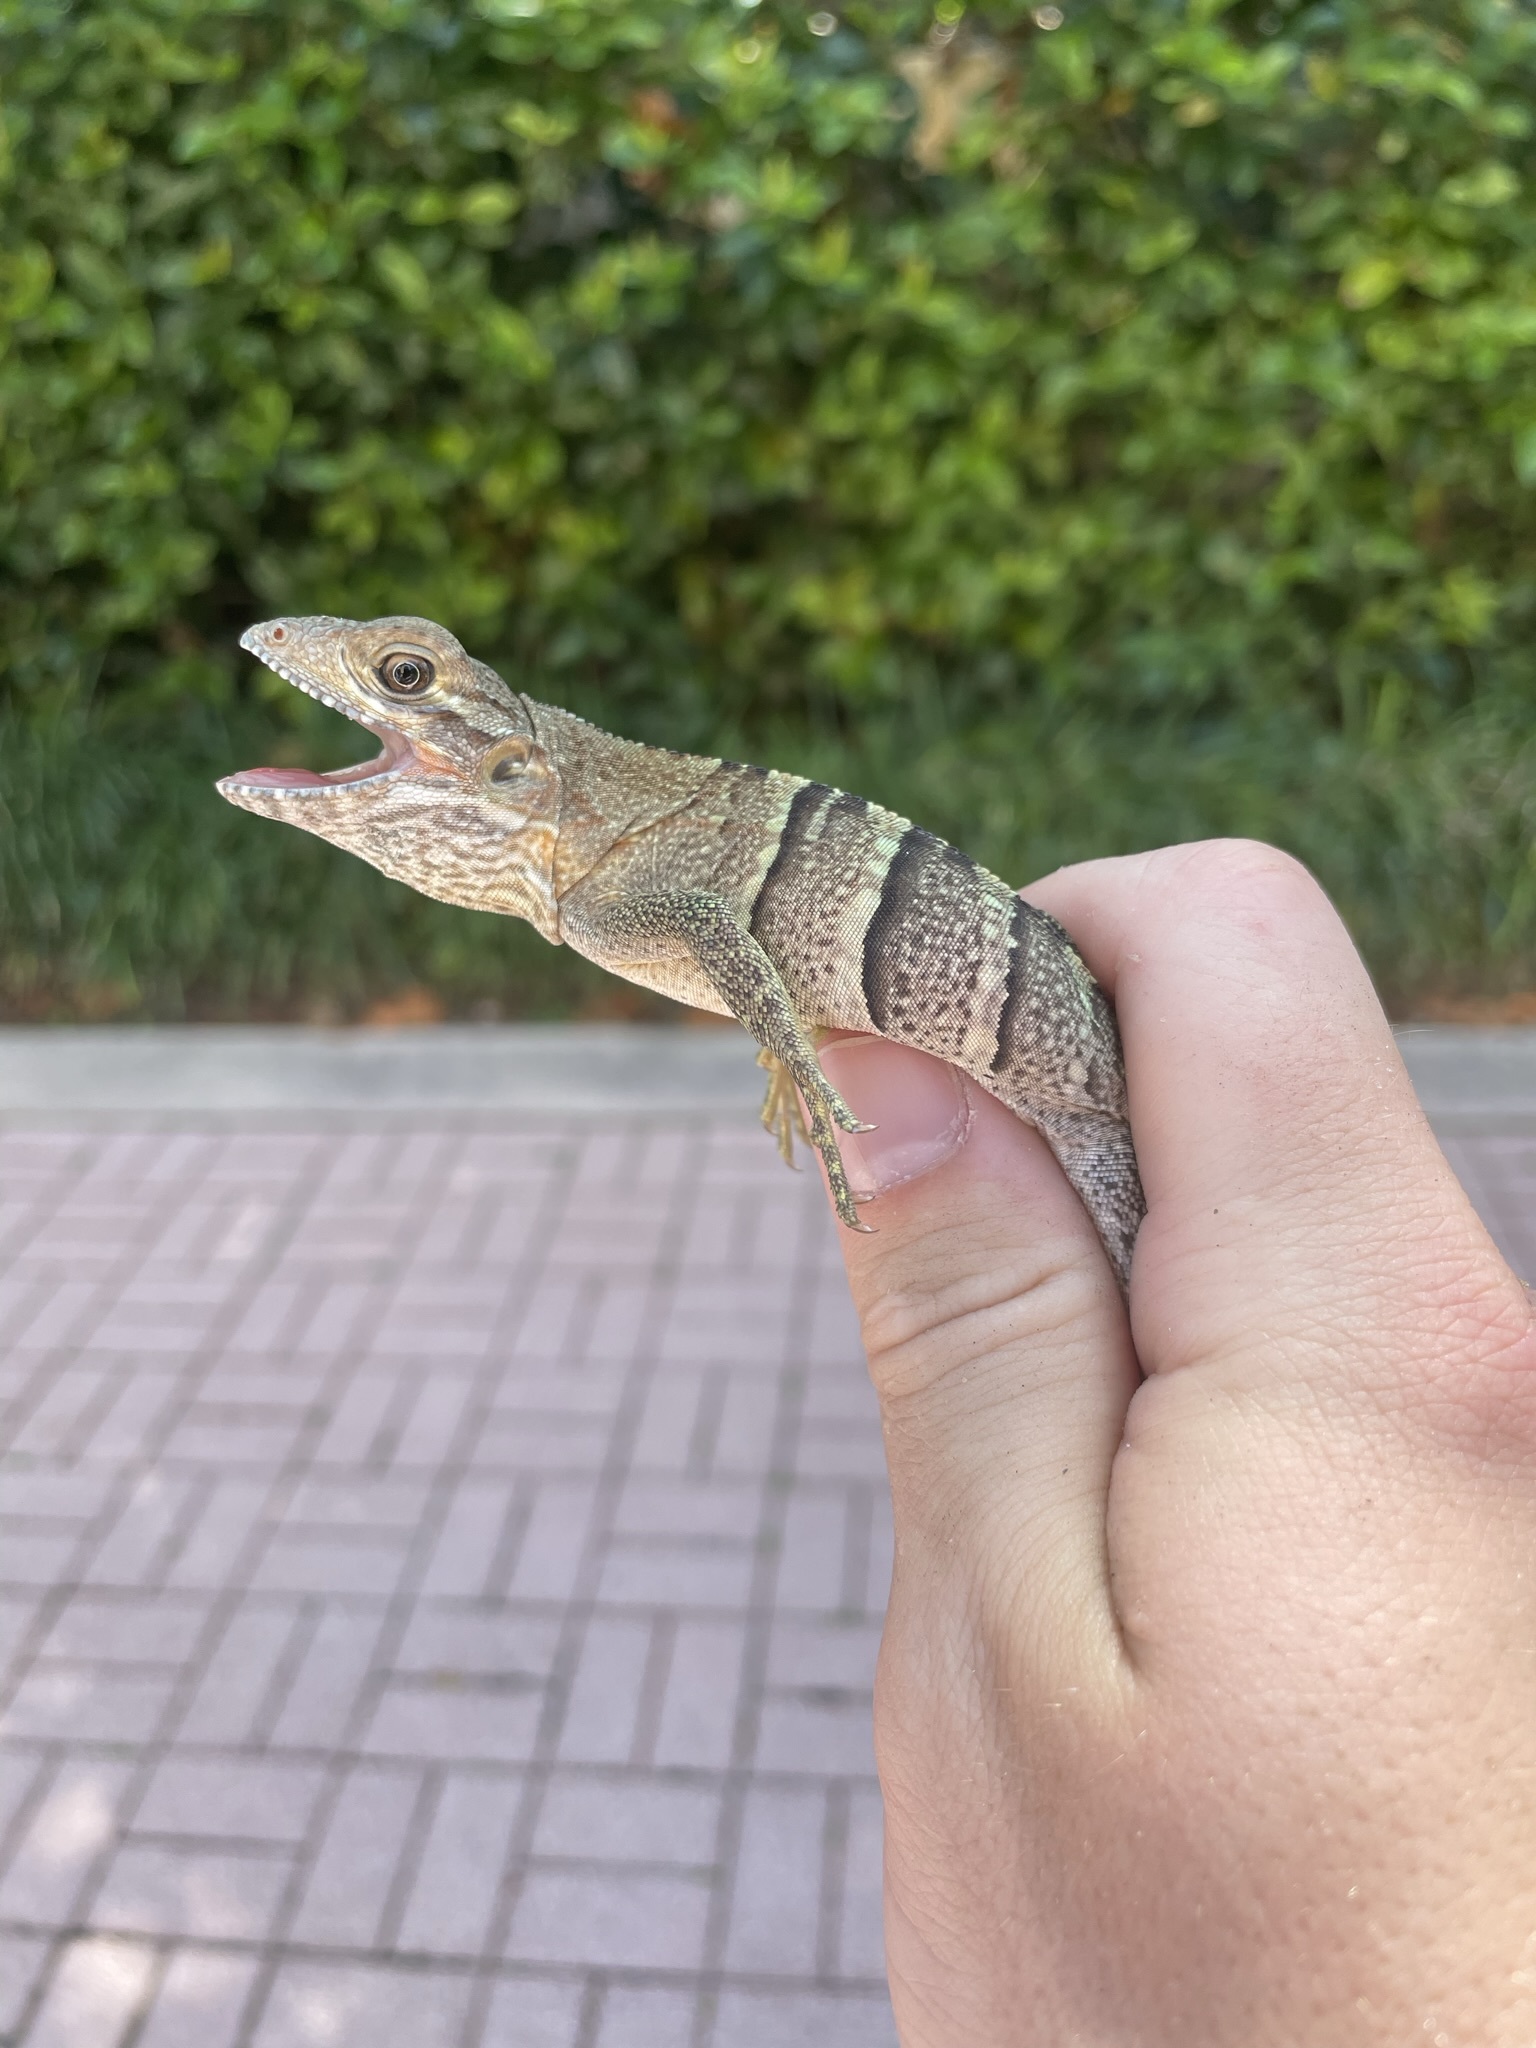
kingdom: Animalia
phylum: Chordata
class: Squamata
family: Iguanidae
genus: Ctenosaura
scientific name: Ctenosaura similis
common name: Black spiny-tailed iguana
